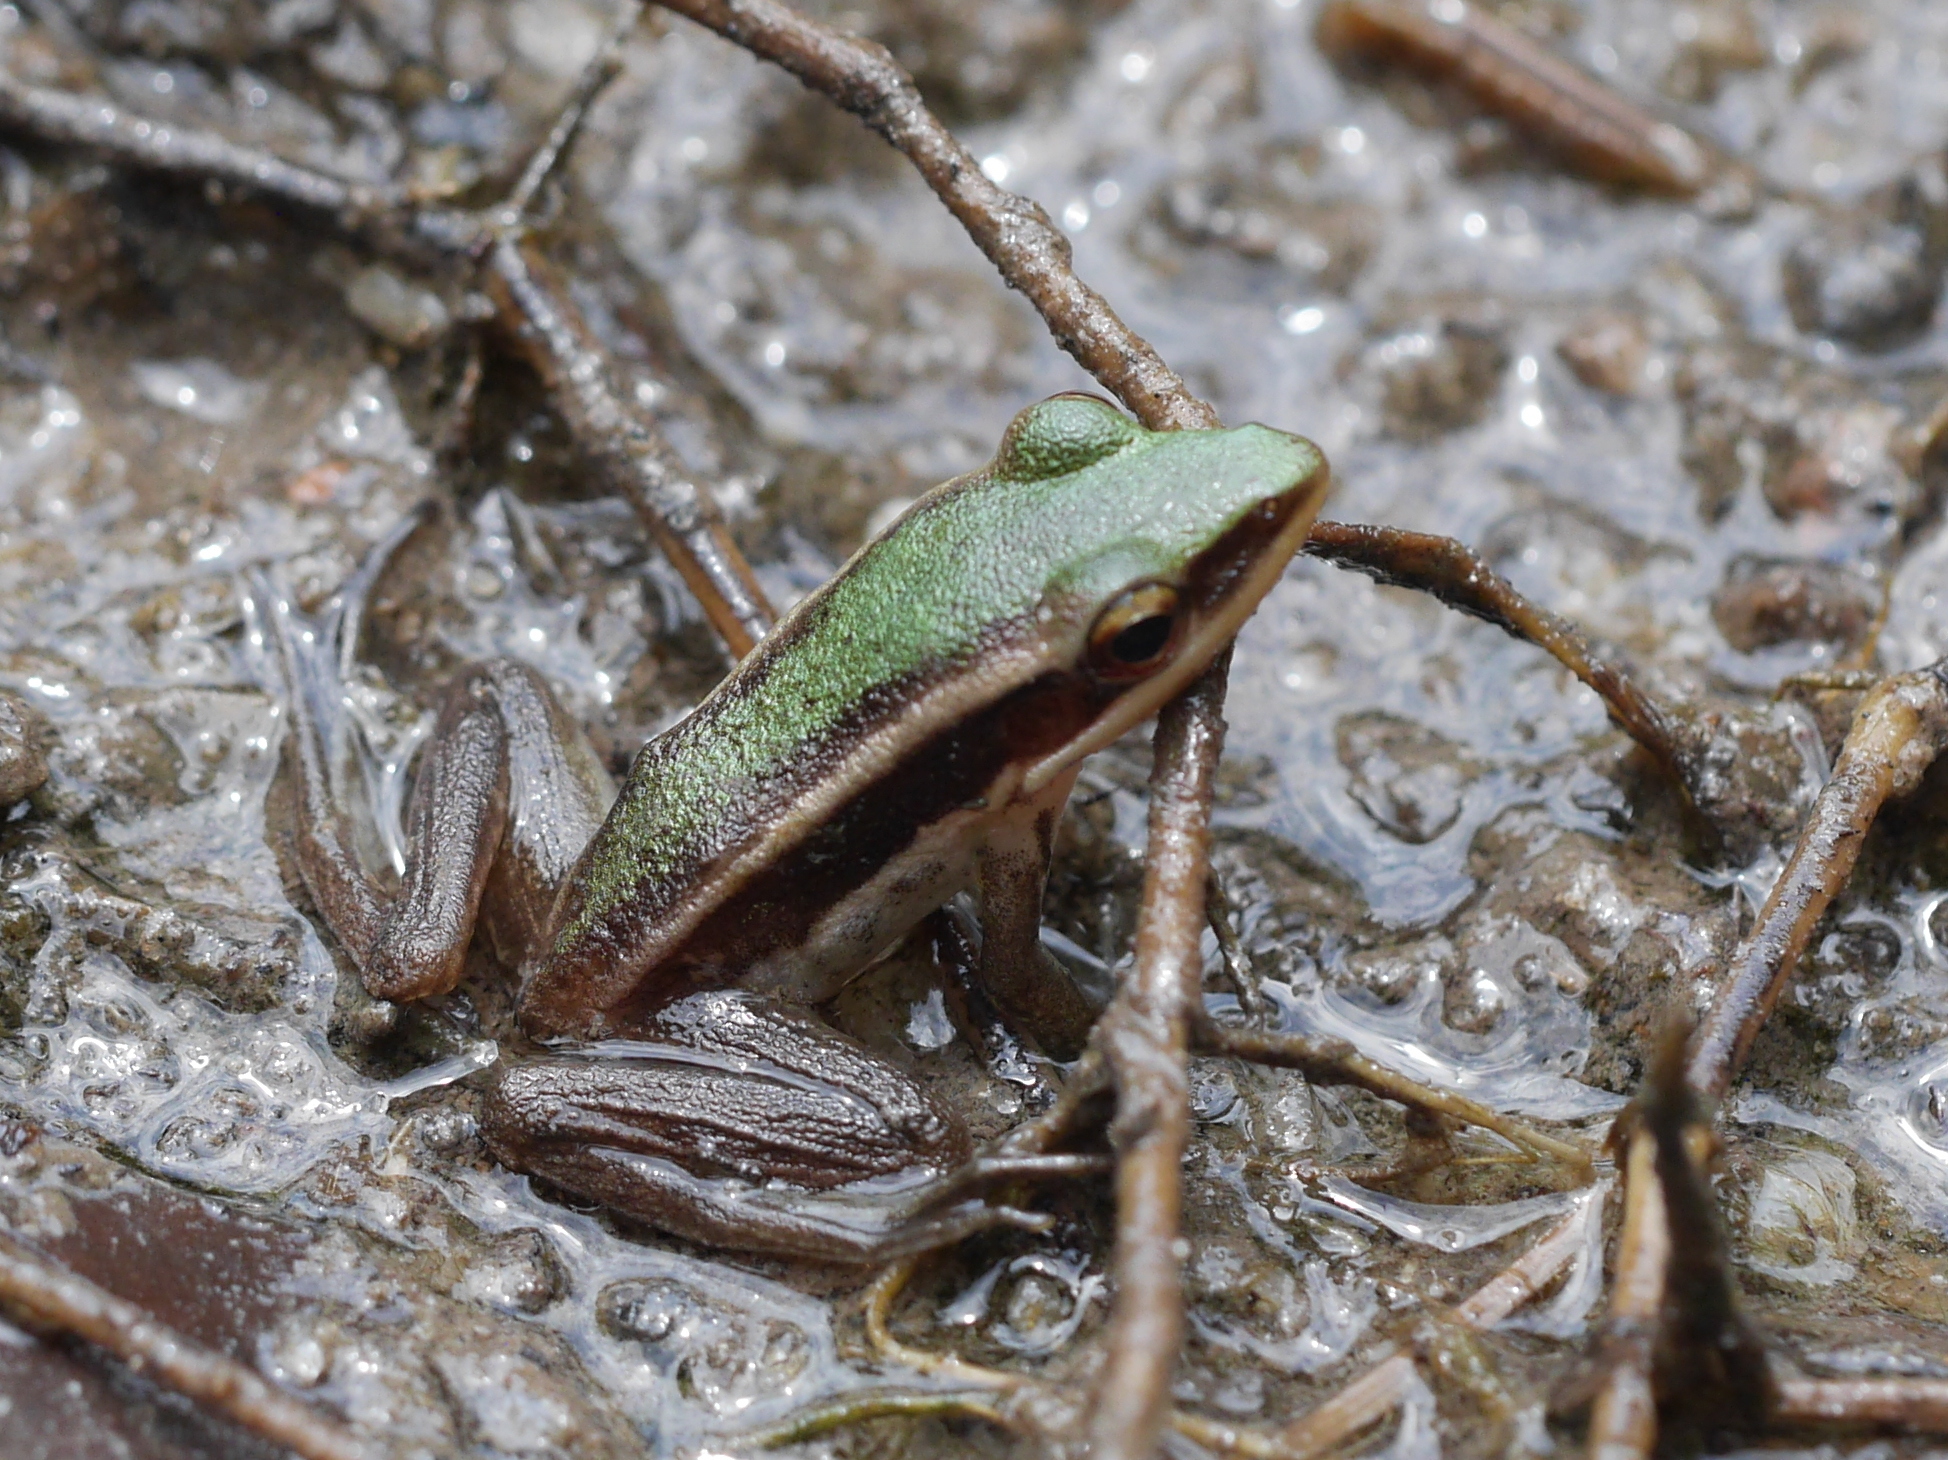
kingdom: Animalia
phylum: Chordata
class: Amphibia
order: Anura
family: Ranidae
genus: Hylarana
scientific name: Hylarana erythraea
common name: Common green frog/green paddy frog/leaf frog
